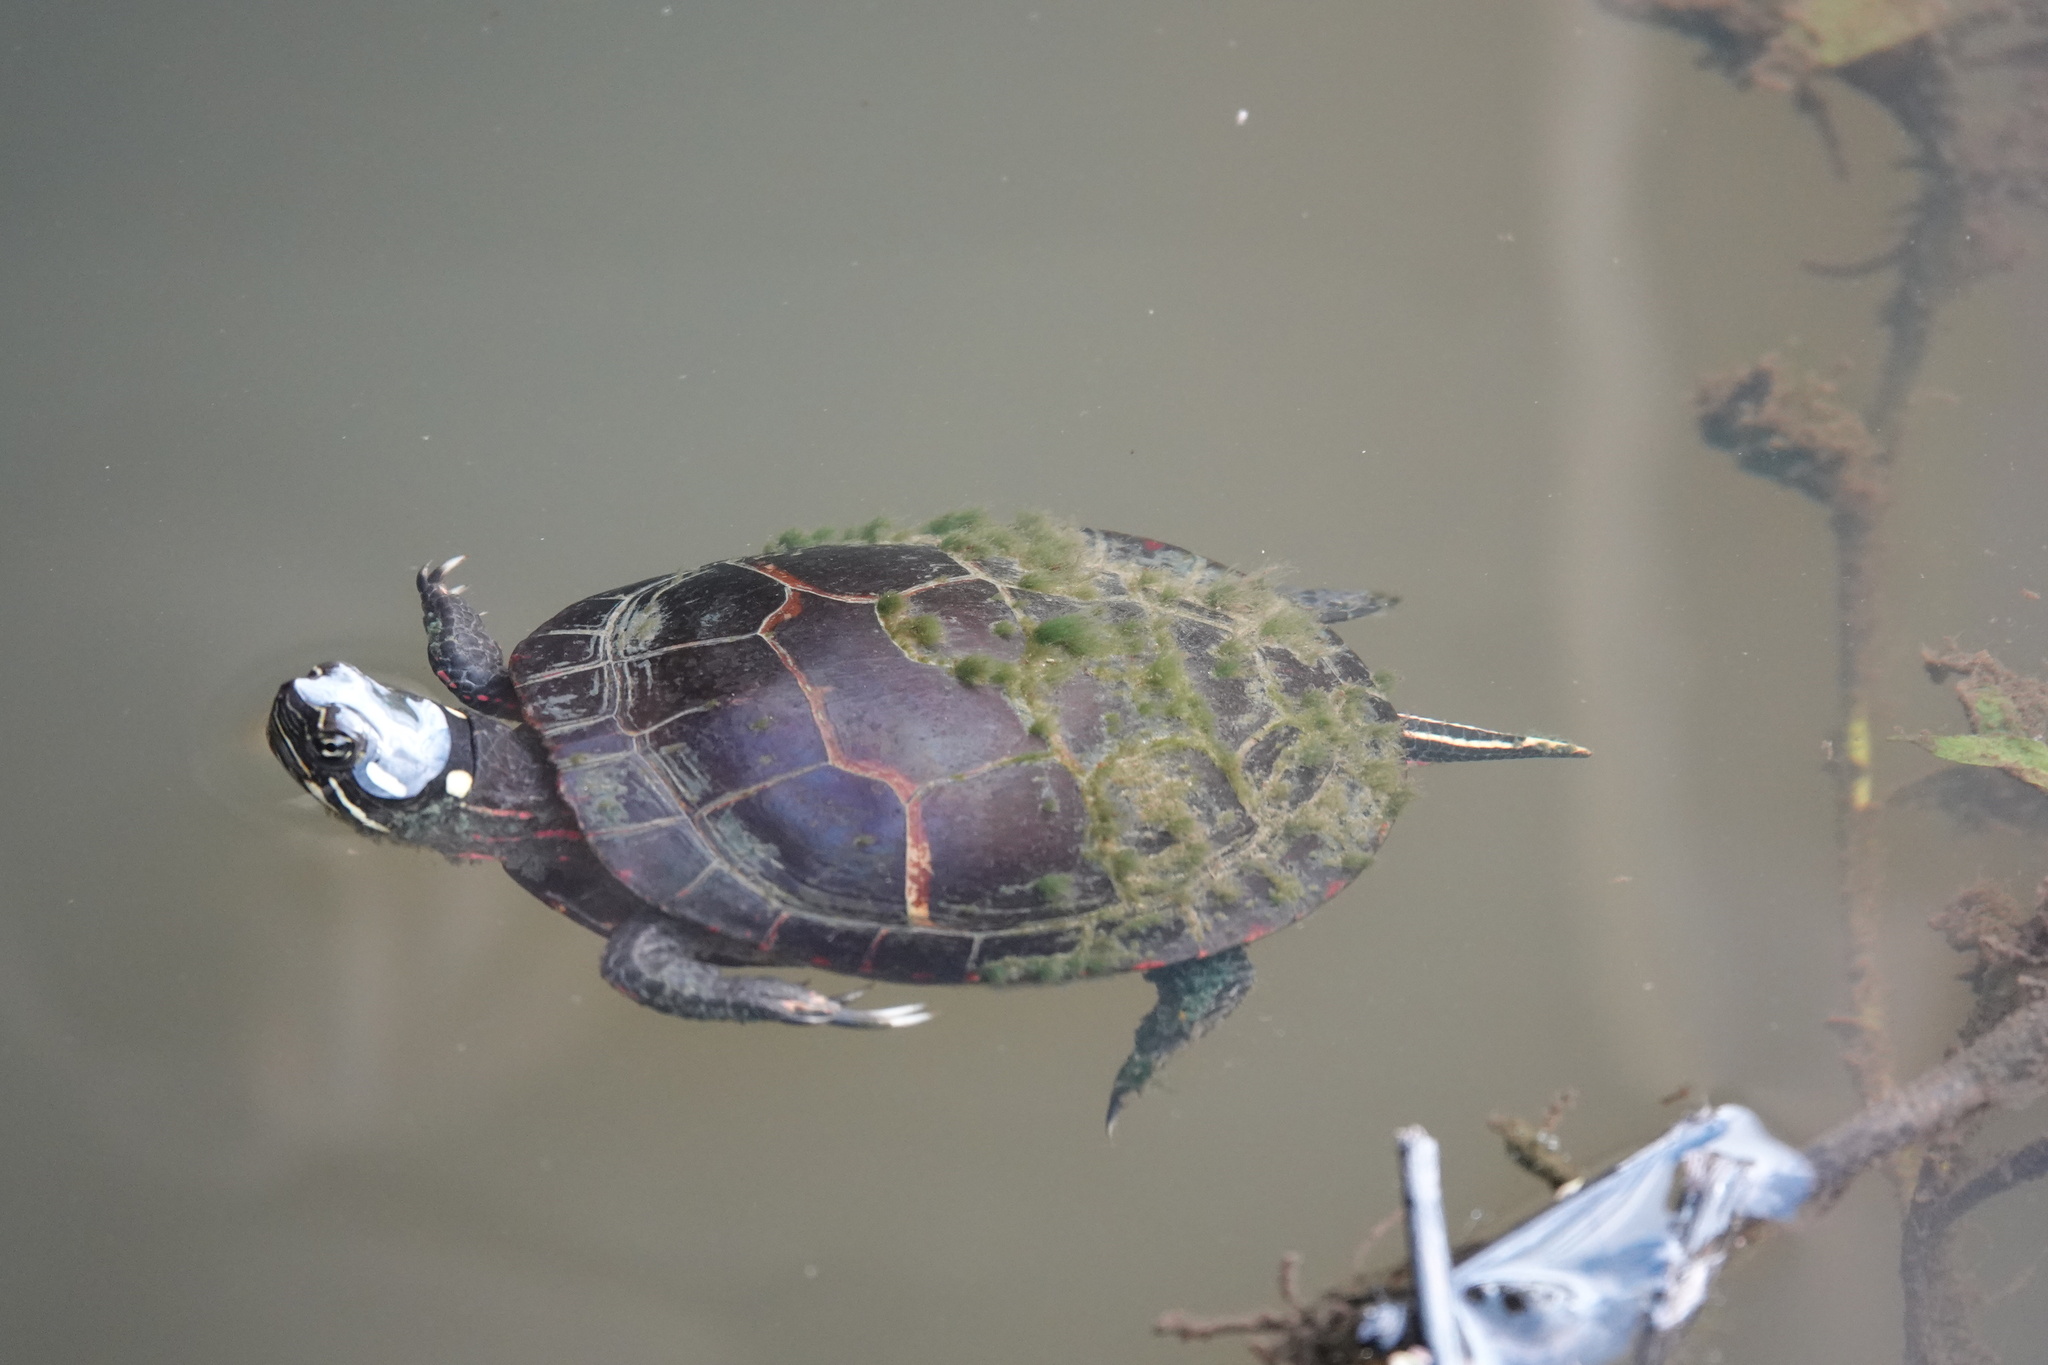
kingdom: Animalia
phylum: Chordata
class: Testudines
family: Emydidae
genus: Chrysemys
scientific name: Chrysemys picta
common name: Painted turtle
